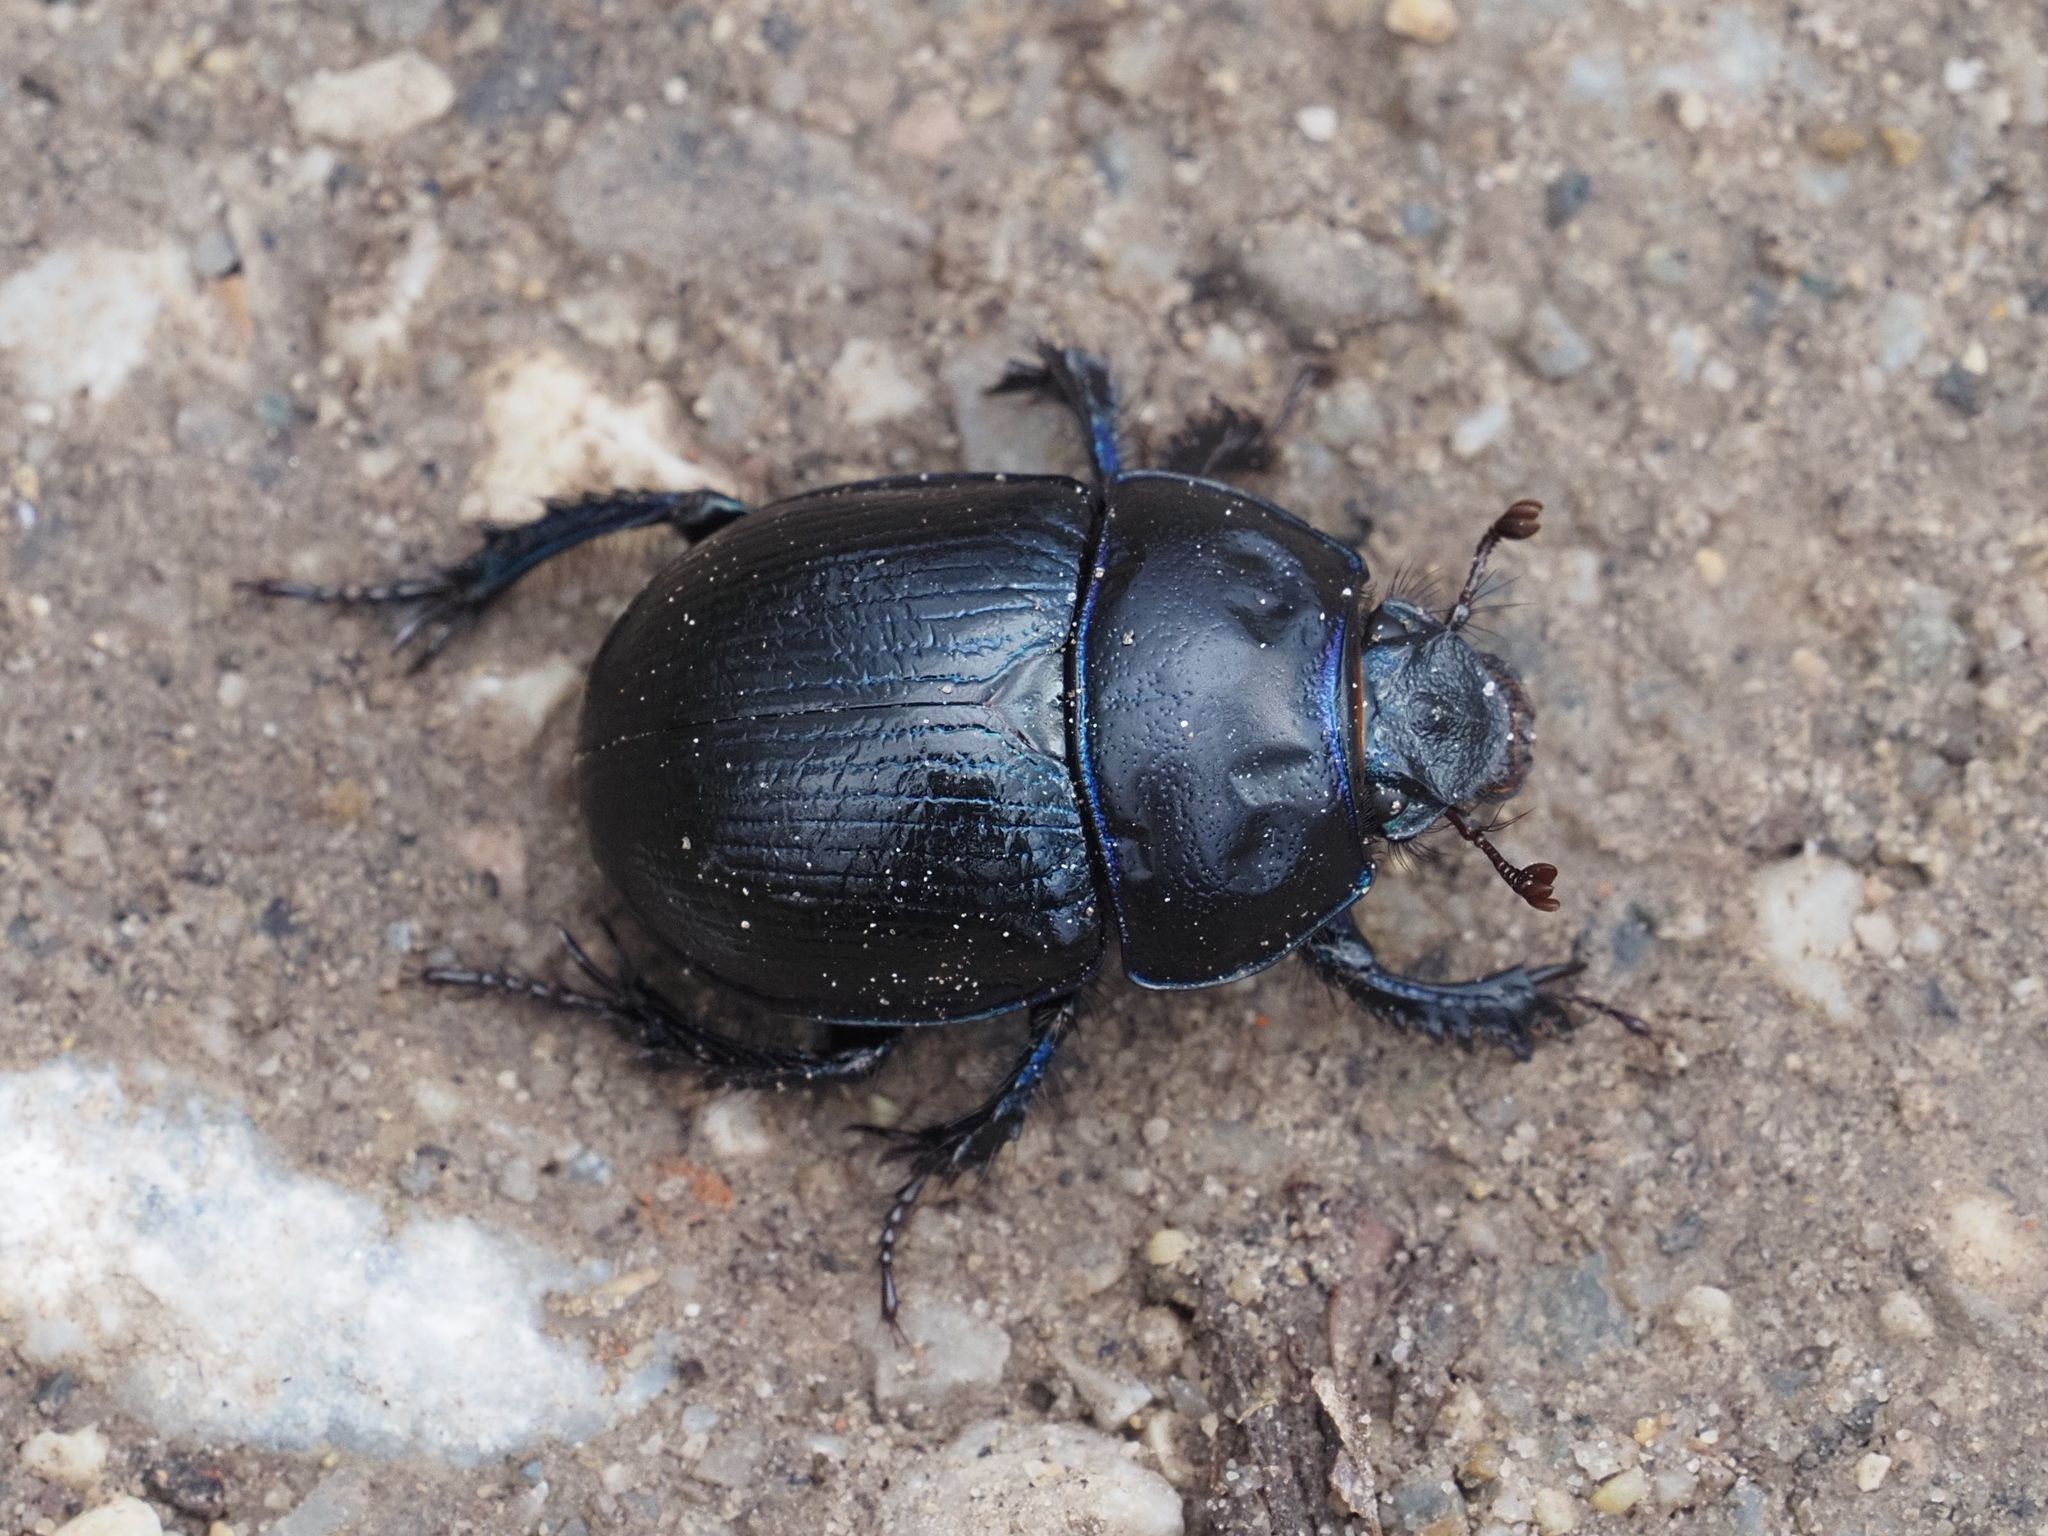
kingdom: Animalia
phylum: Arthropoda
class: Insecta
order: Coleoptera
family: Geotrupidae
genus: Anoplotrupes
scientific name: Anoplotrupes stercorosus
